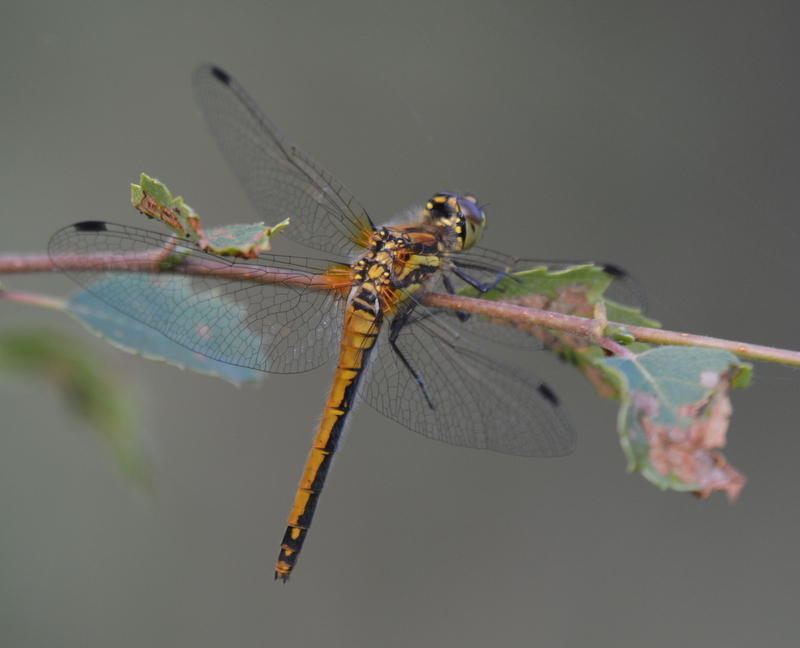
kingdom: Animalia
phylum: Arthropoda
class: Insecta
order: Odonata
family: Libellulidae
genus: Sympetrum
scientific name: Sympetrum danae
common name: Black darter
